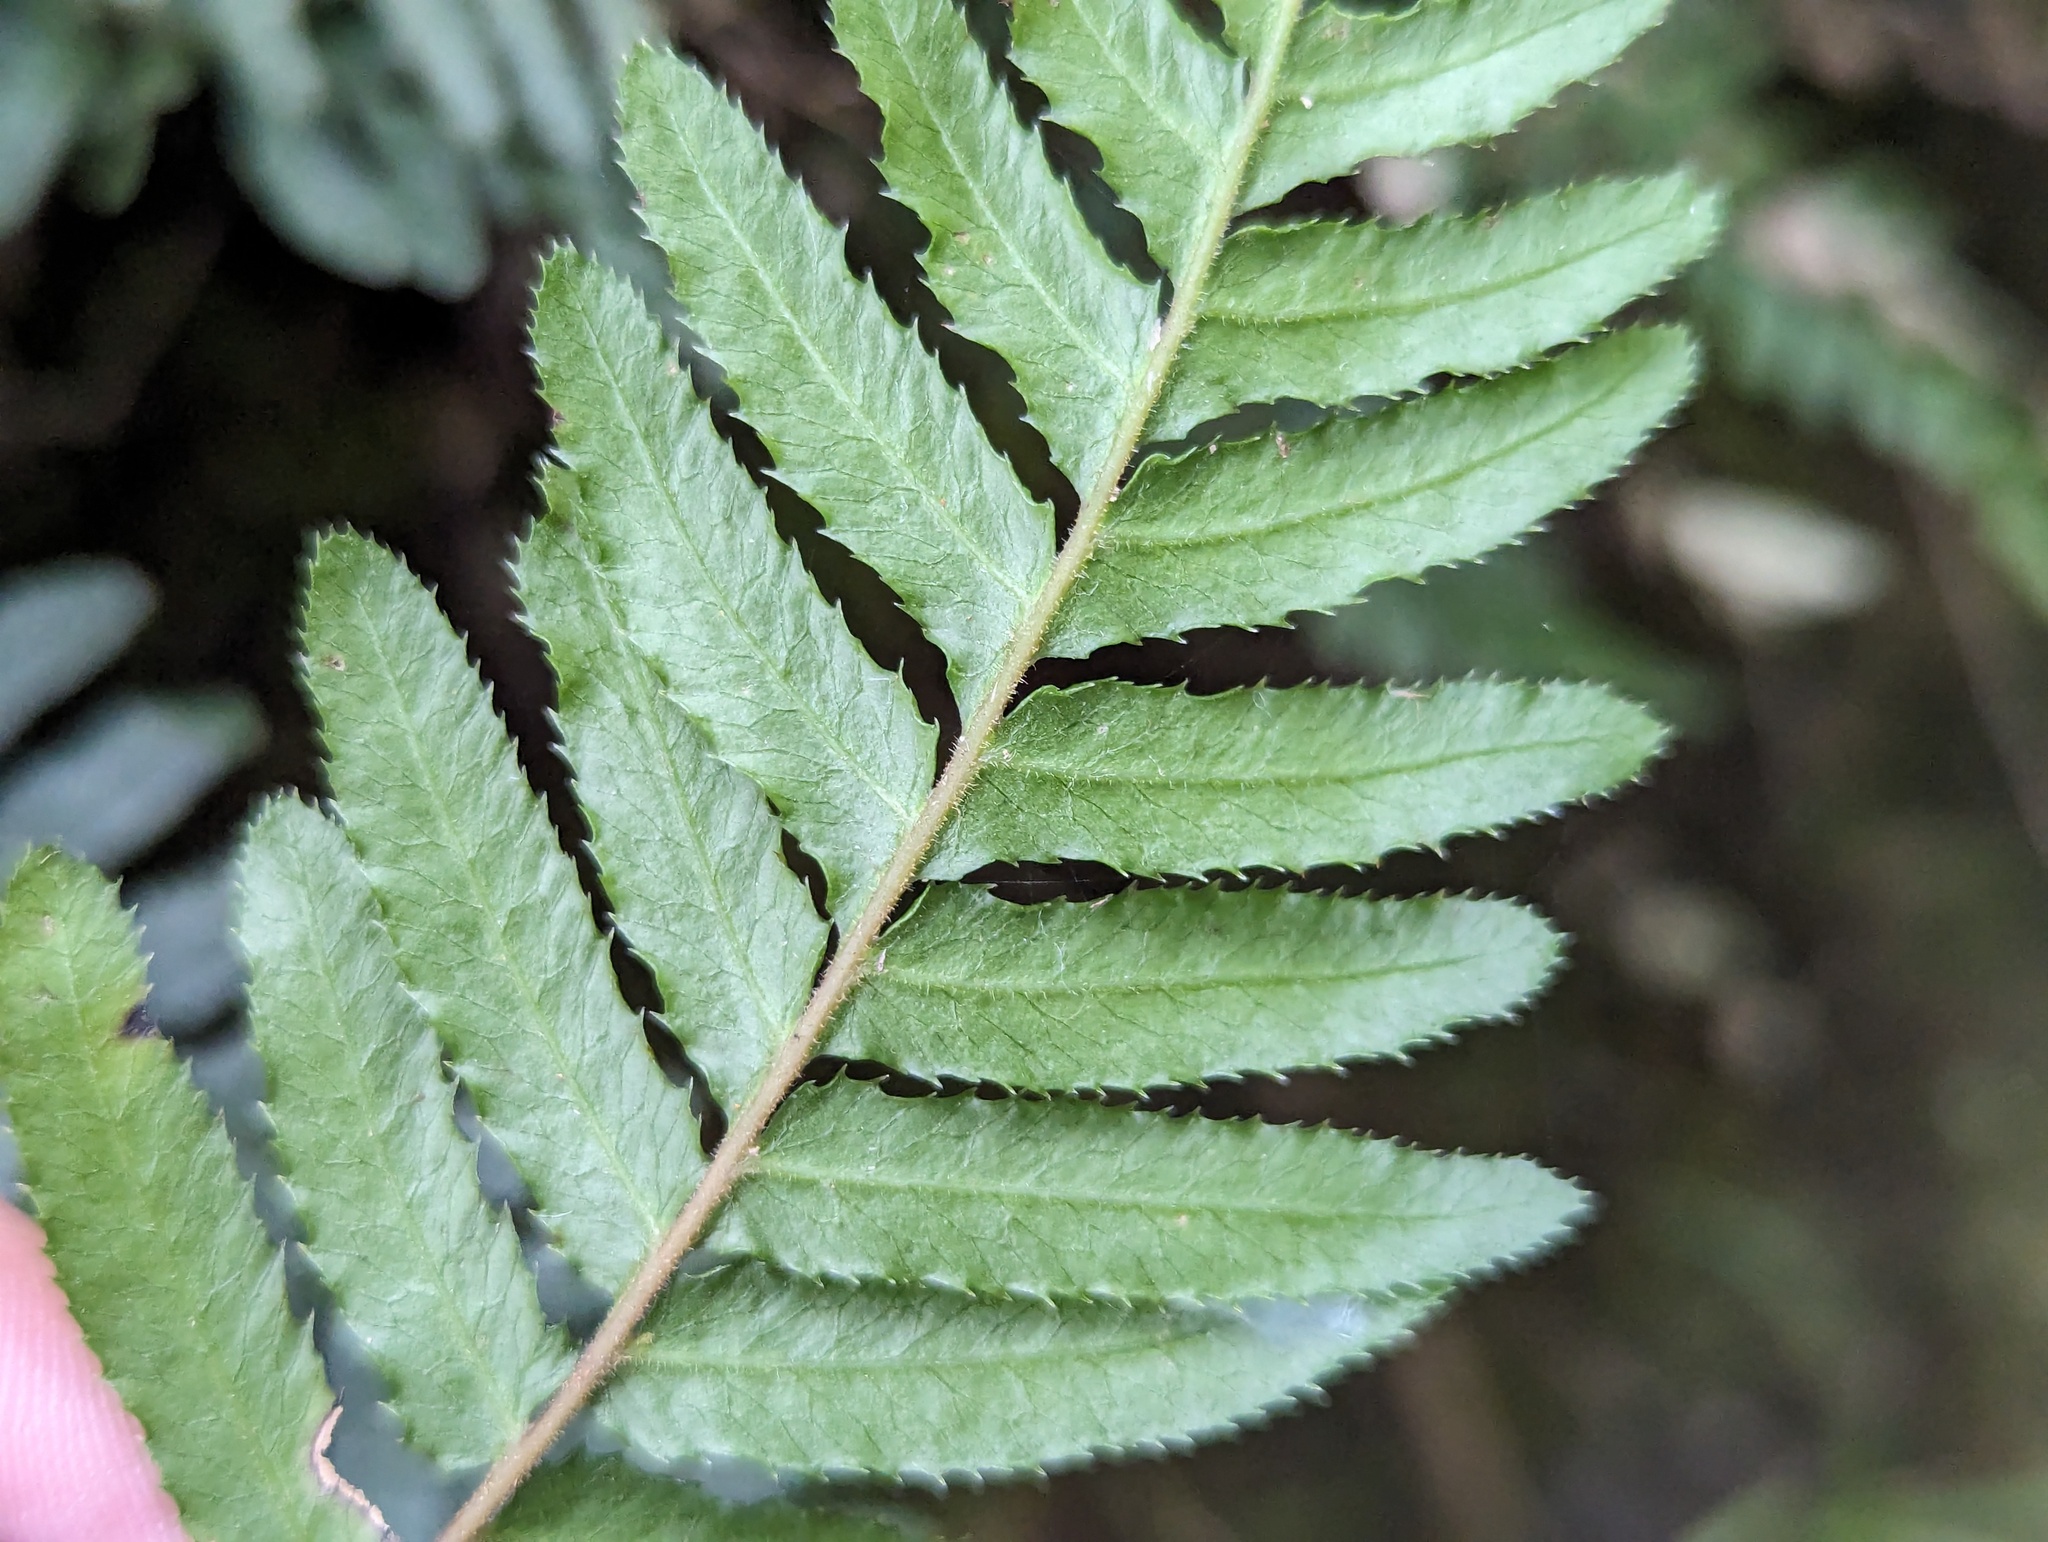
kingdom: Plantae
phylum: Tracheophyta
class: Polypodiopsida
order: Polypodiales
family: Blechnaceae
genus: Doodia
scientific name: Doodia australis
